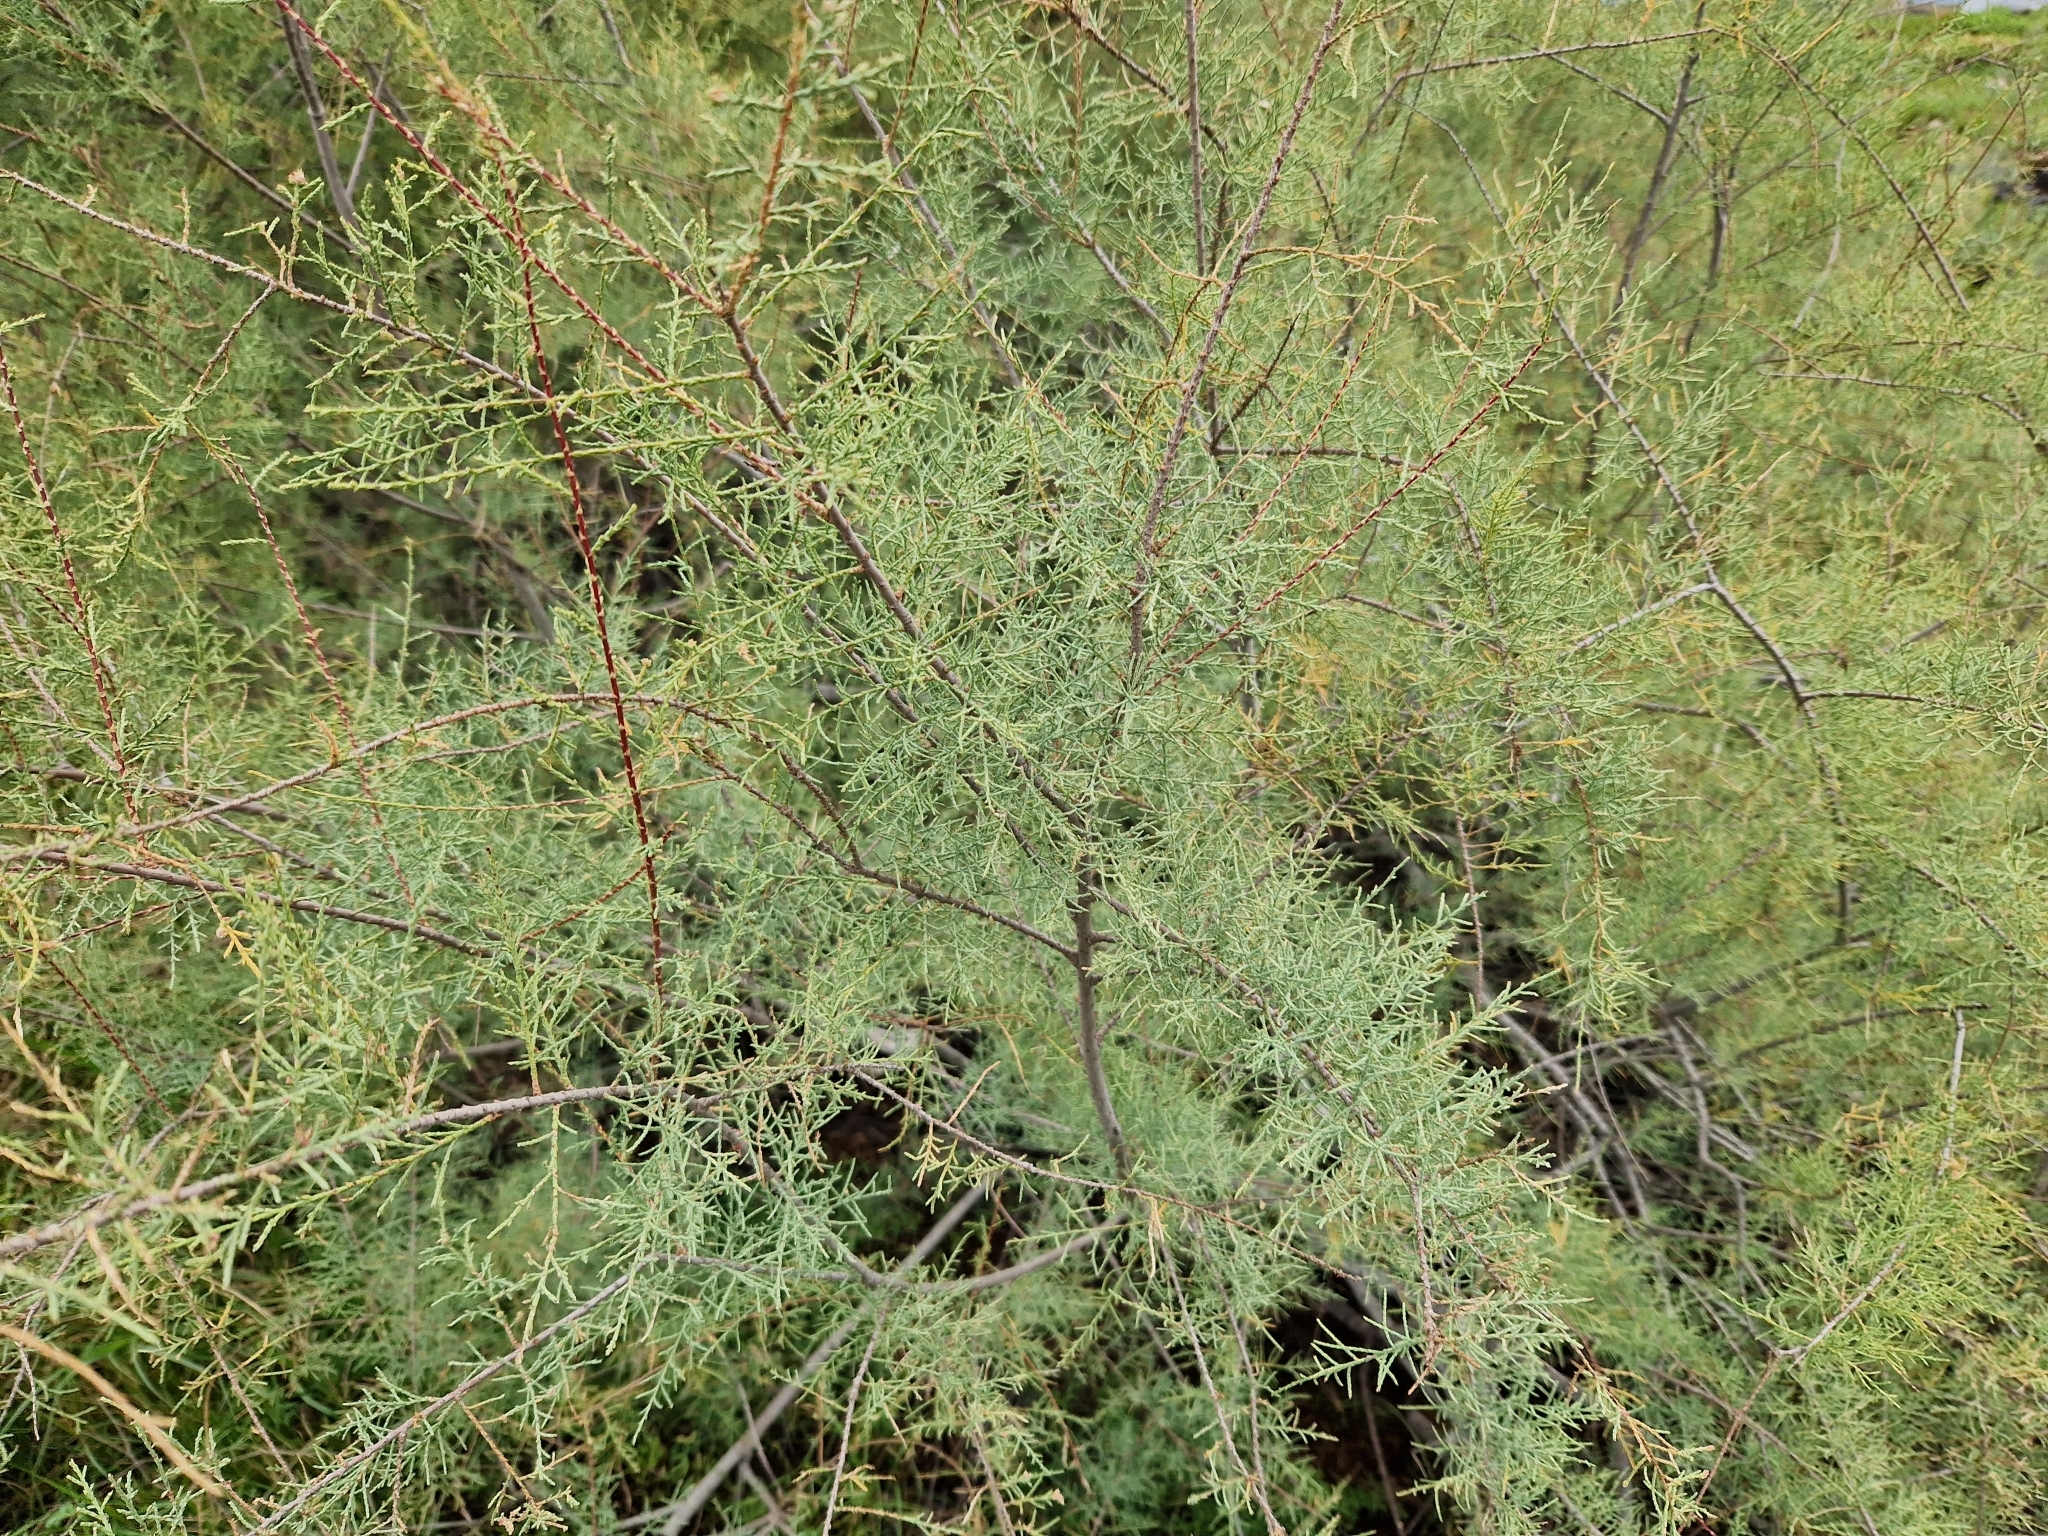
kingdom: Plantae
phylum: Tracheophyta
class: Magnoliopsida
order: Caryophyllales
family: Tamaricaceae
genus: Tamarix
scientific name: Tamarix canariensis
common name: Canary island tamarisk
